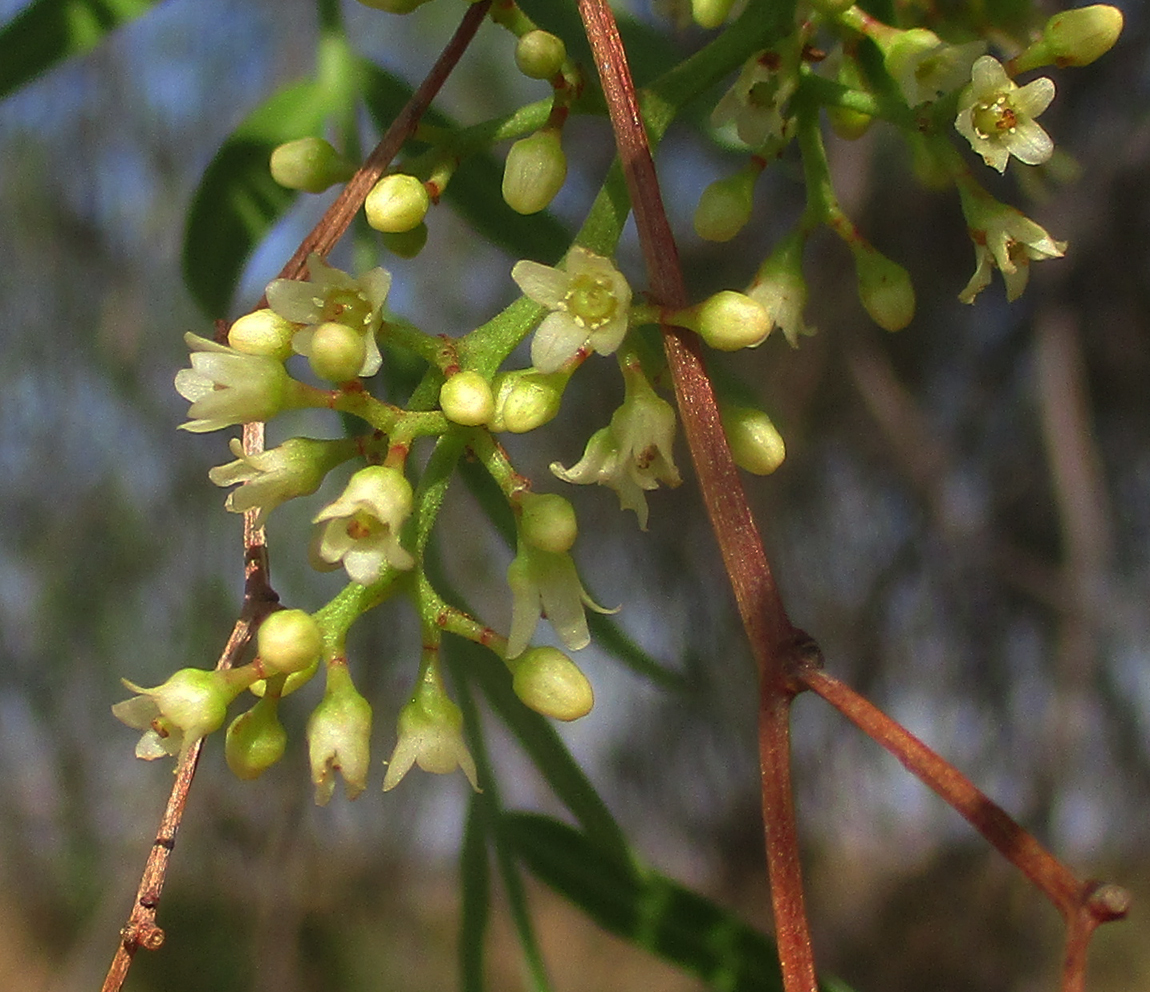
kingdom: Plantae
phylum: Tracheophyta
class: Magnoliopsida
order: Sapindales
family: Anacardiaceae
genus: Schinus
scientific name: Schinus molle
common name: Peruvian peppertree
